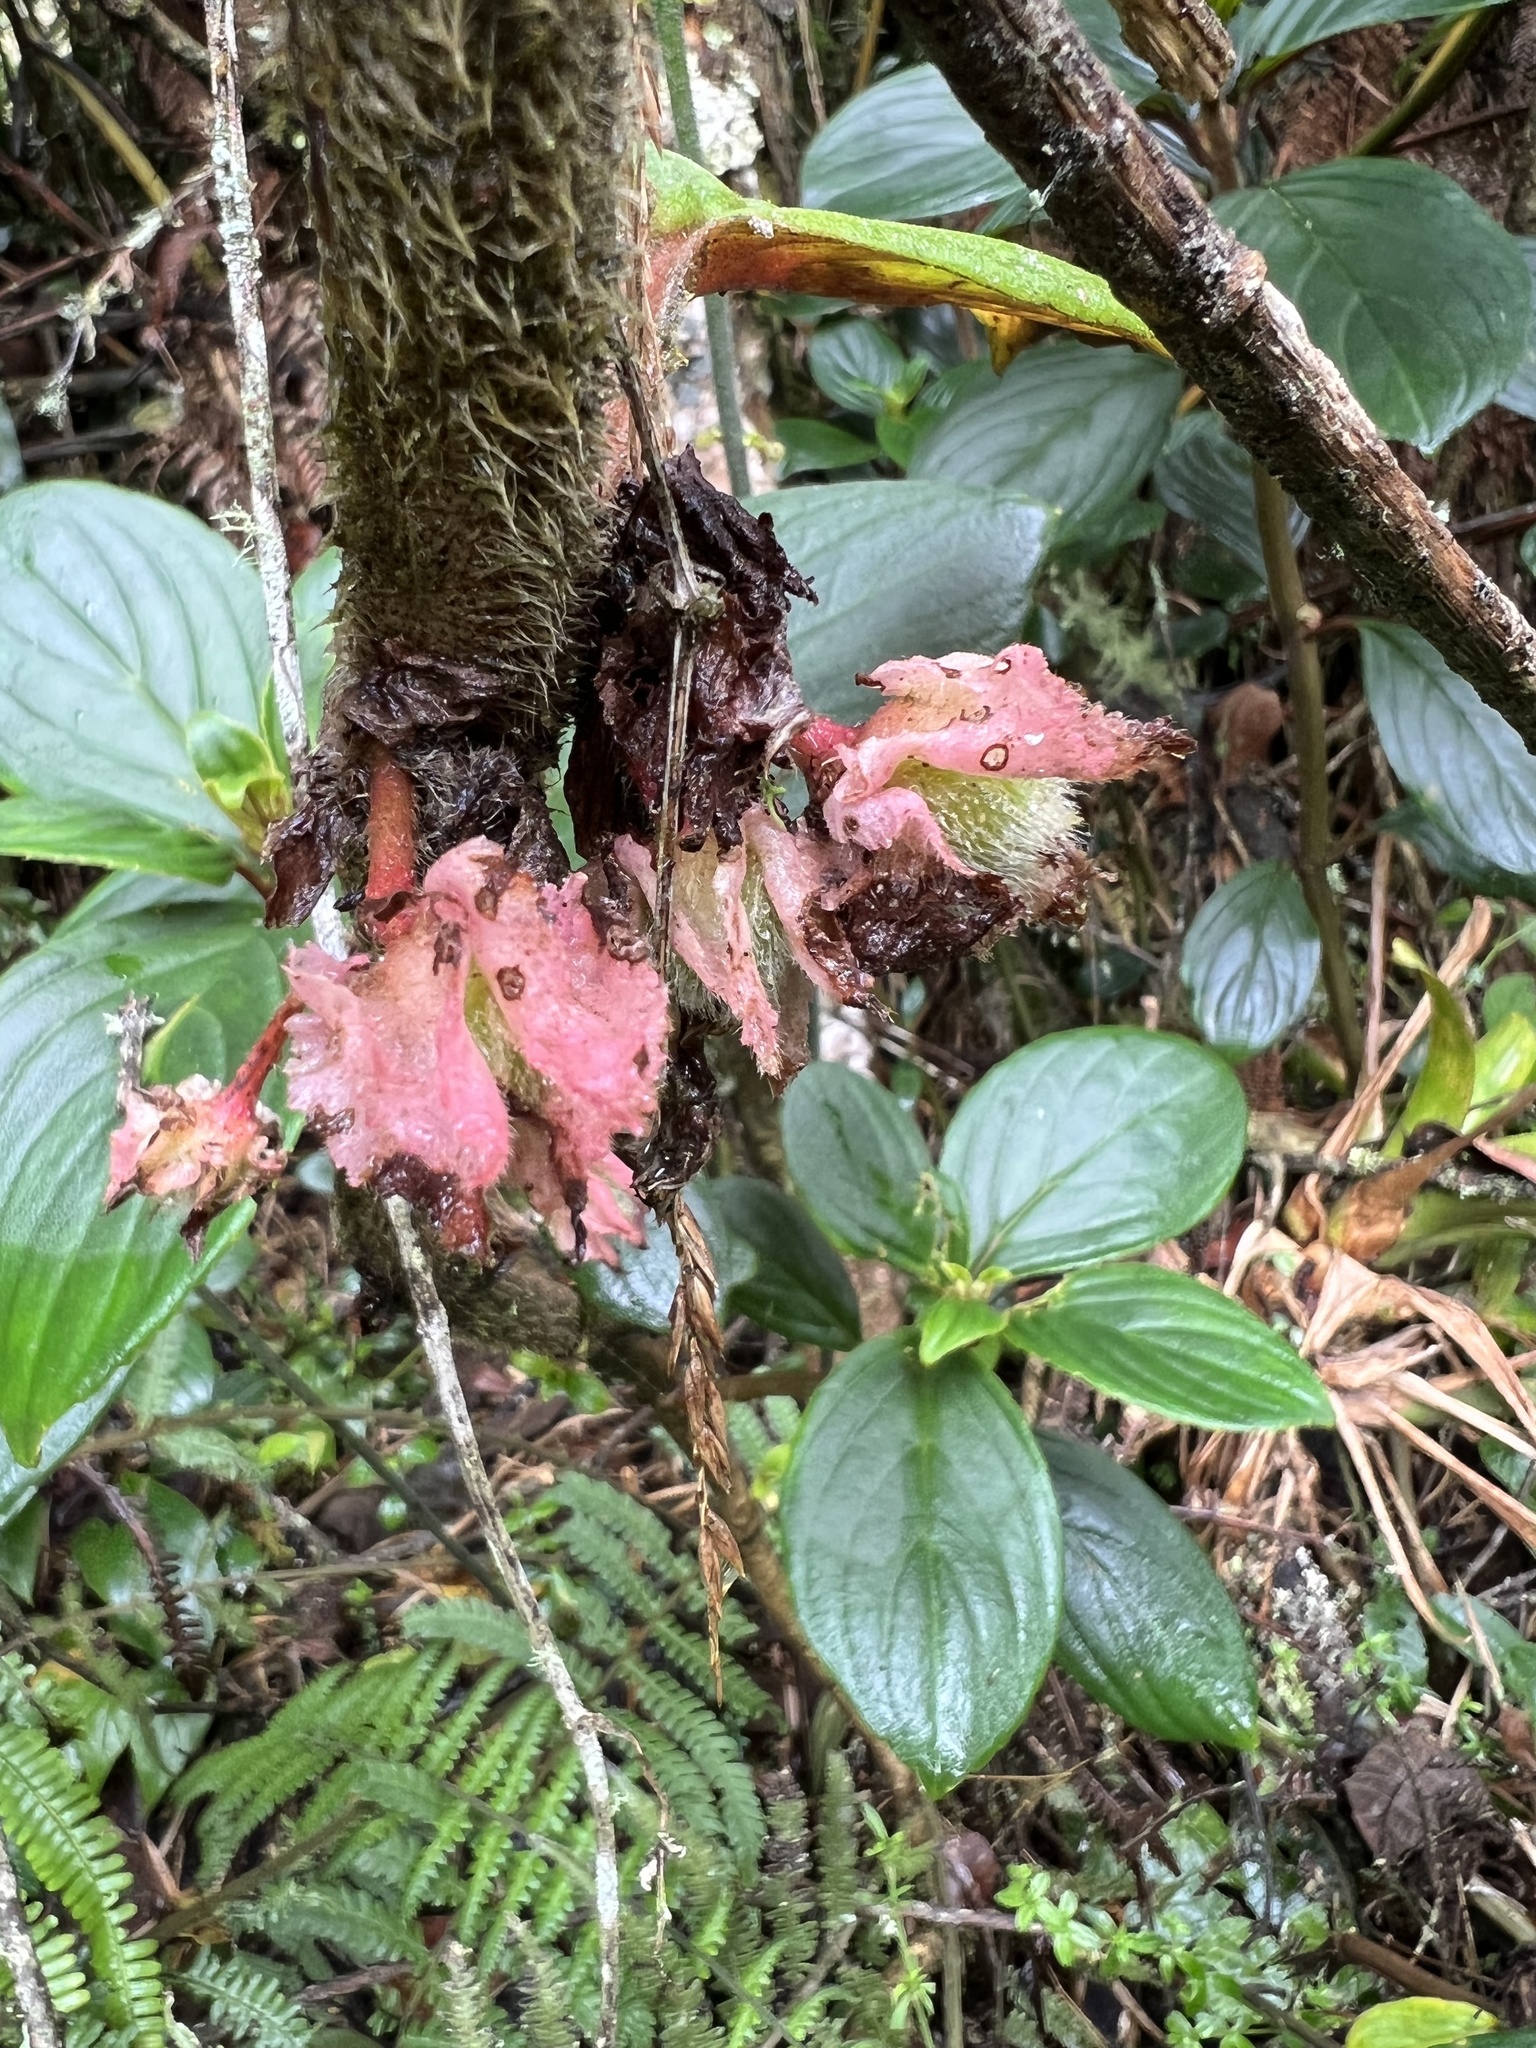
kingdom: Plantae
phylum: Tracheophyta
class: Magnoliopsida
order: Lamiales
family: Gesneriaceae
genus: Glossoloma
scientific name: Glossoloma ichthyoderma
